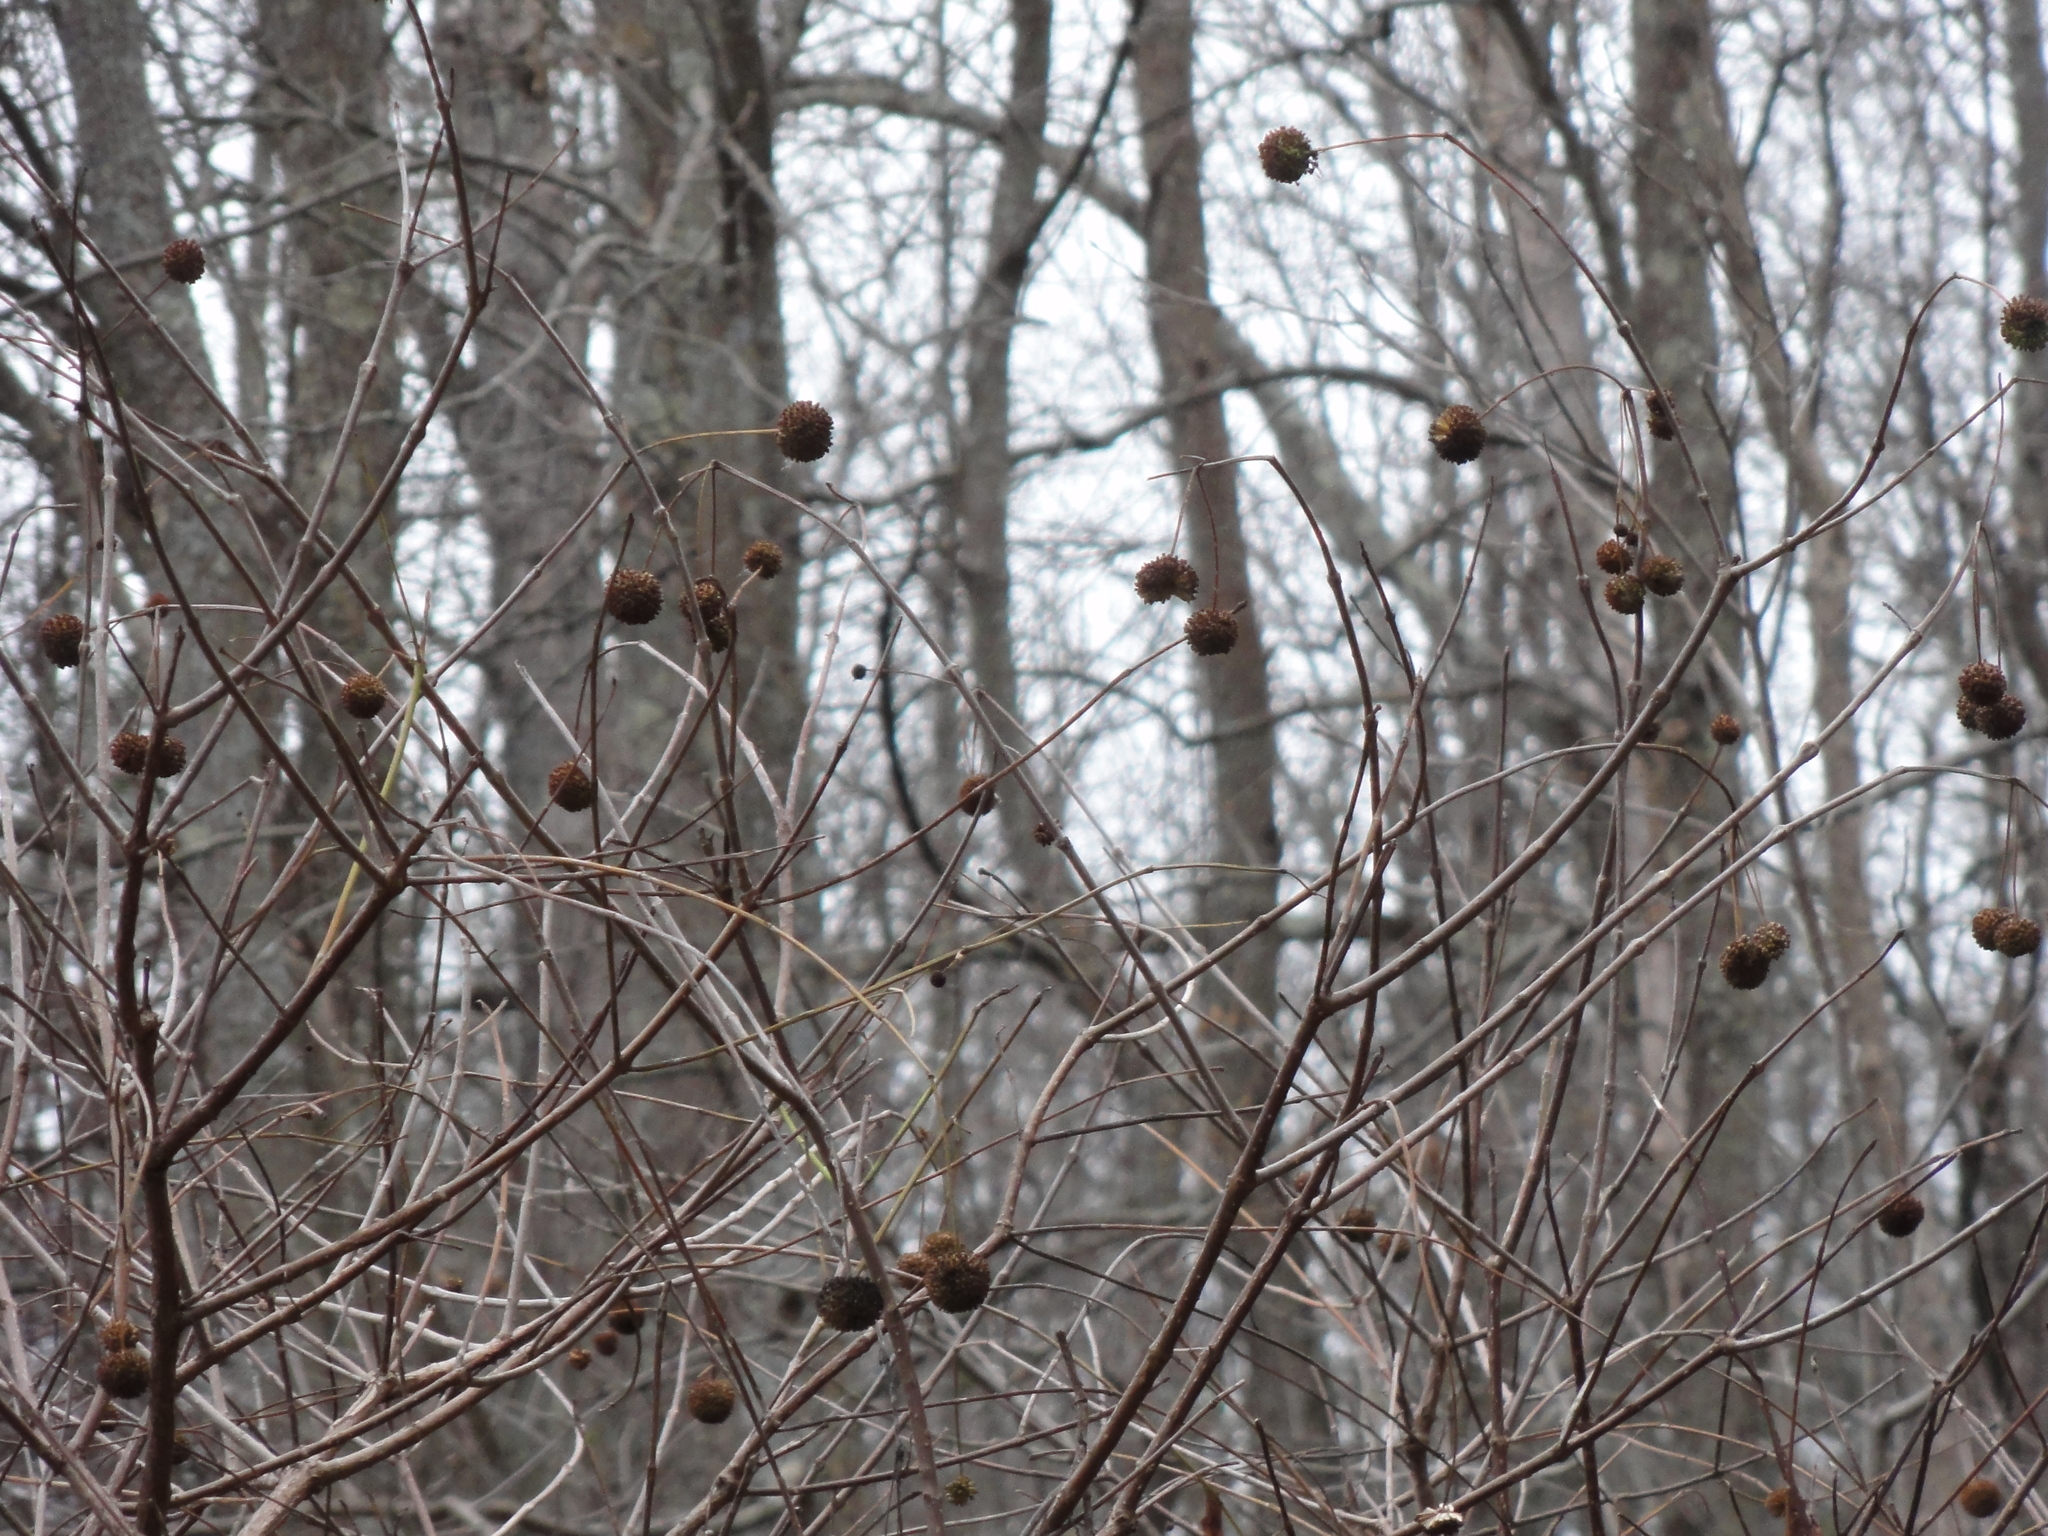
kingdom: Plantae
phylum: Tracheophyta
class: Magnoliopsida
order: Gentianales
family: Rubiaceae
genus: Cephalanthus
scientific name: Cephalanthus occidentalis
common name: Button-willow
